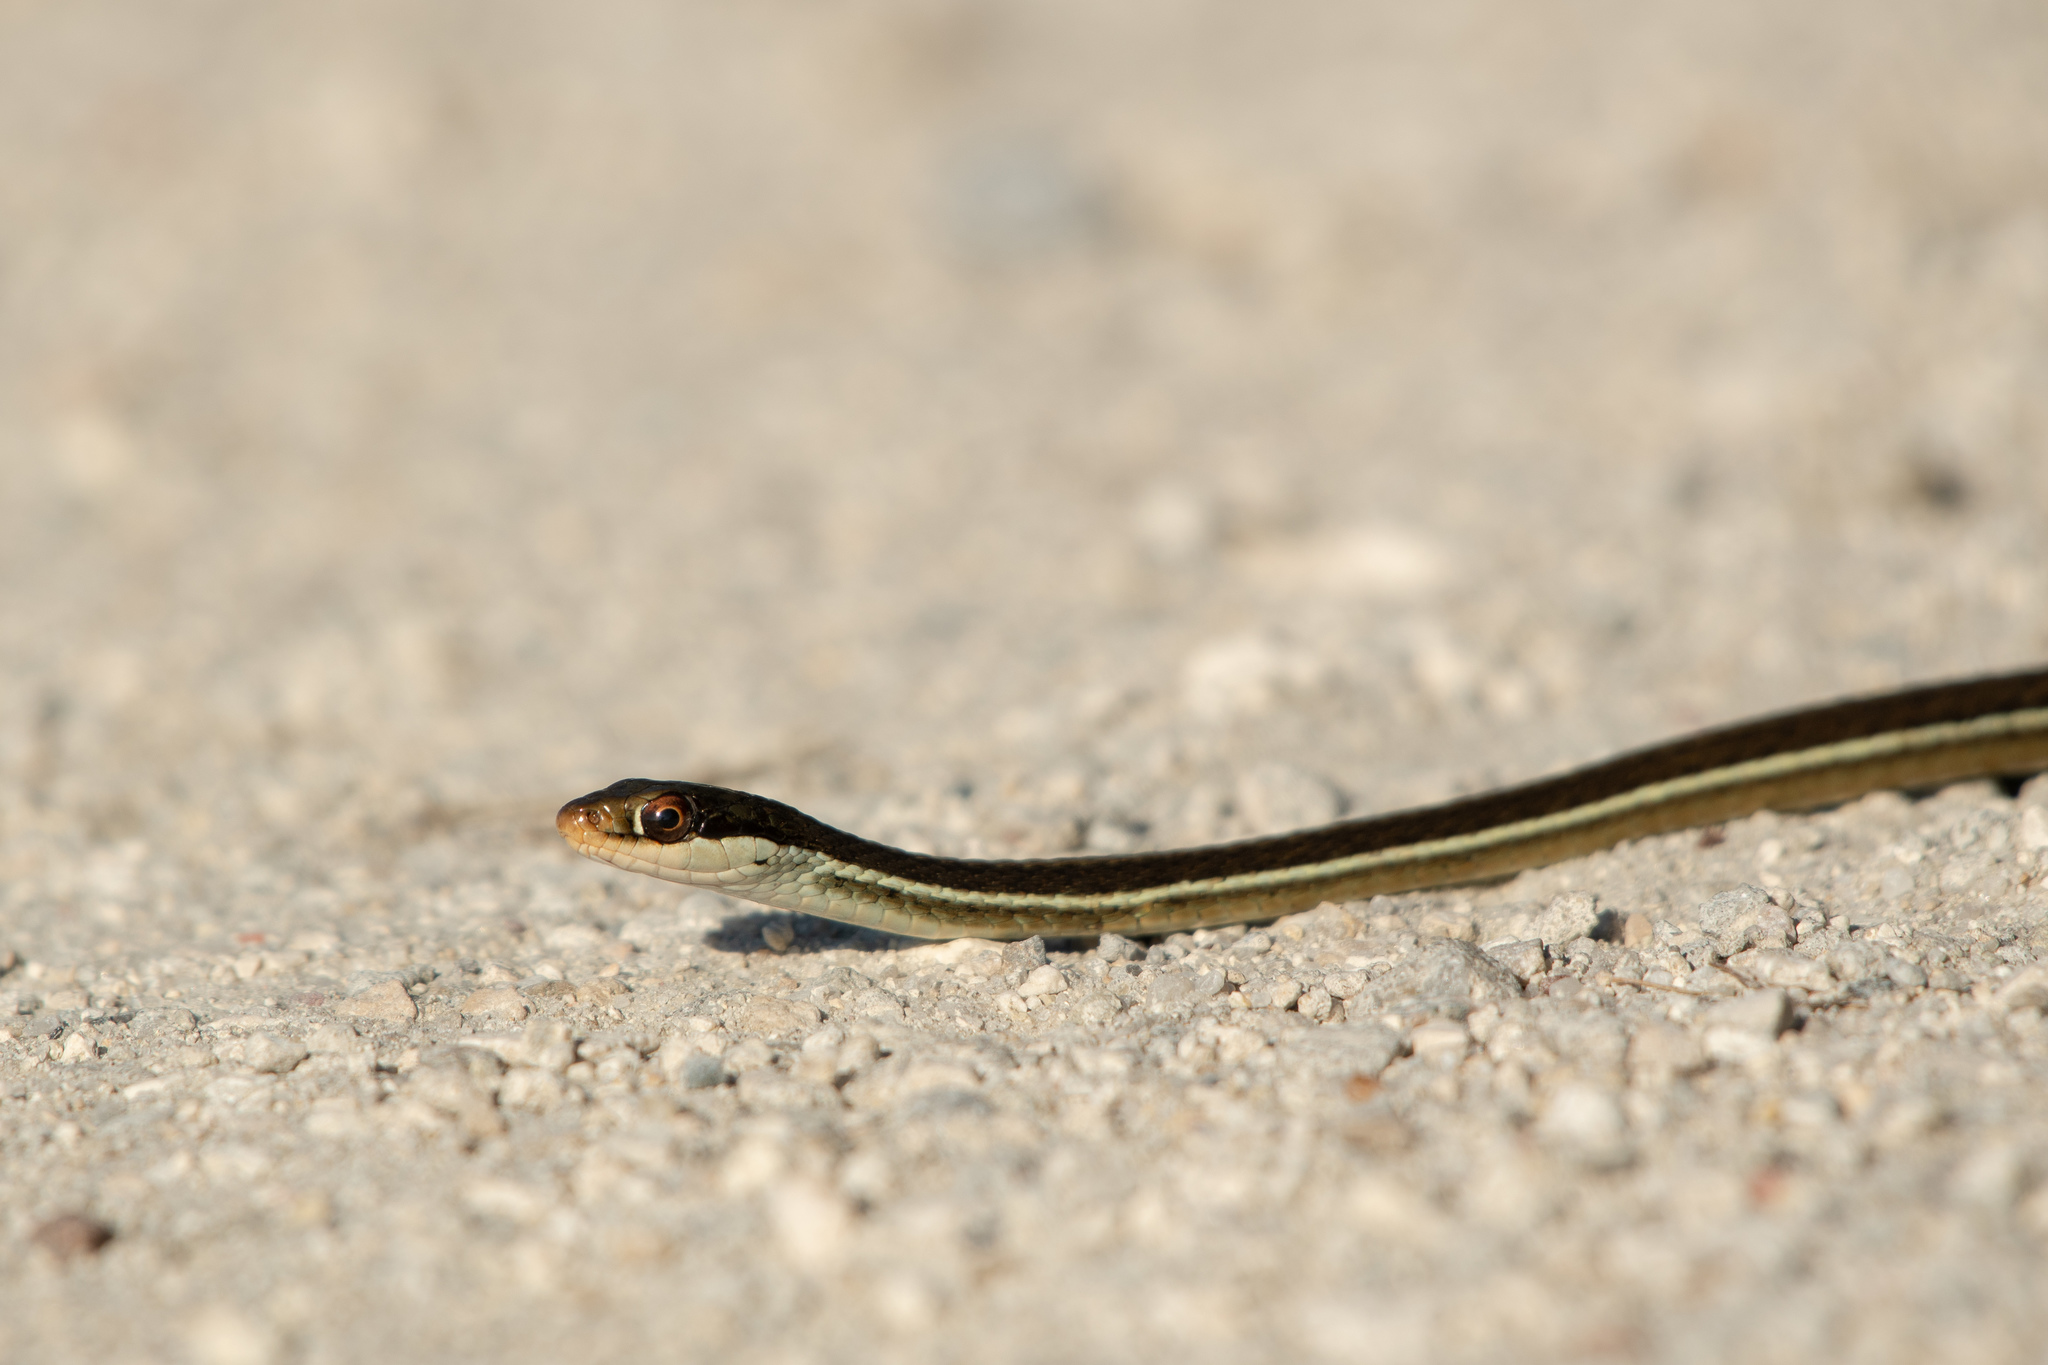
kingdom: Animalia
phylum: Chordata
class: Squamata
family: Colubridae
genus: Thamnophis
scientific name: Thamnophis saurita
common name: Eastern ribbonsnake
